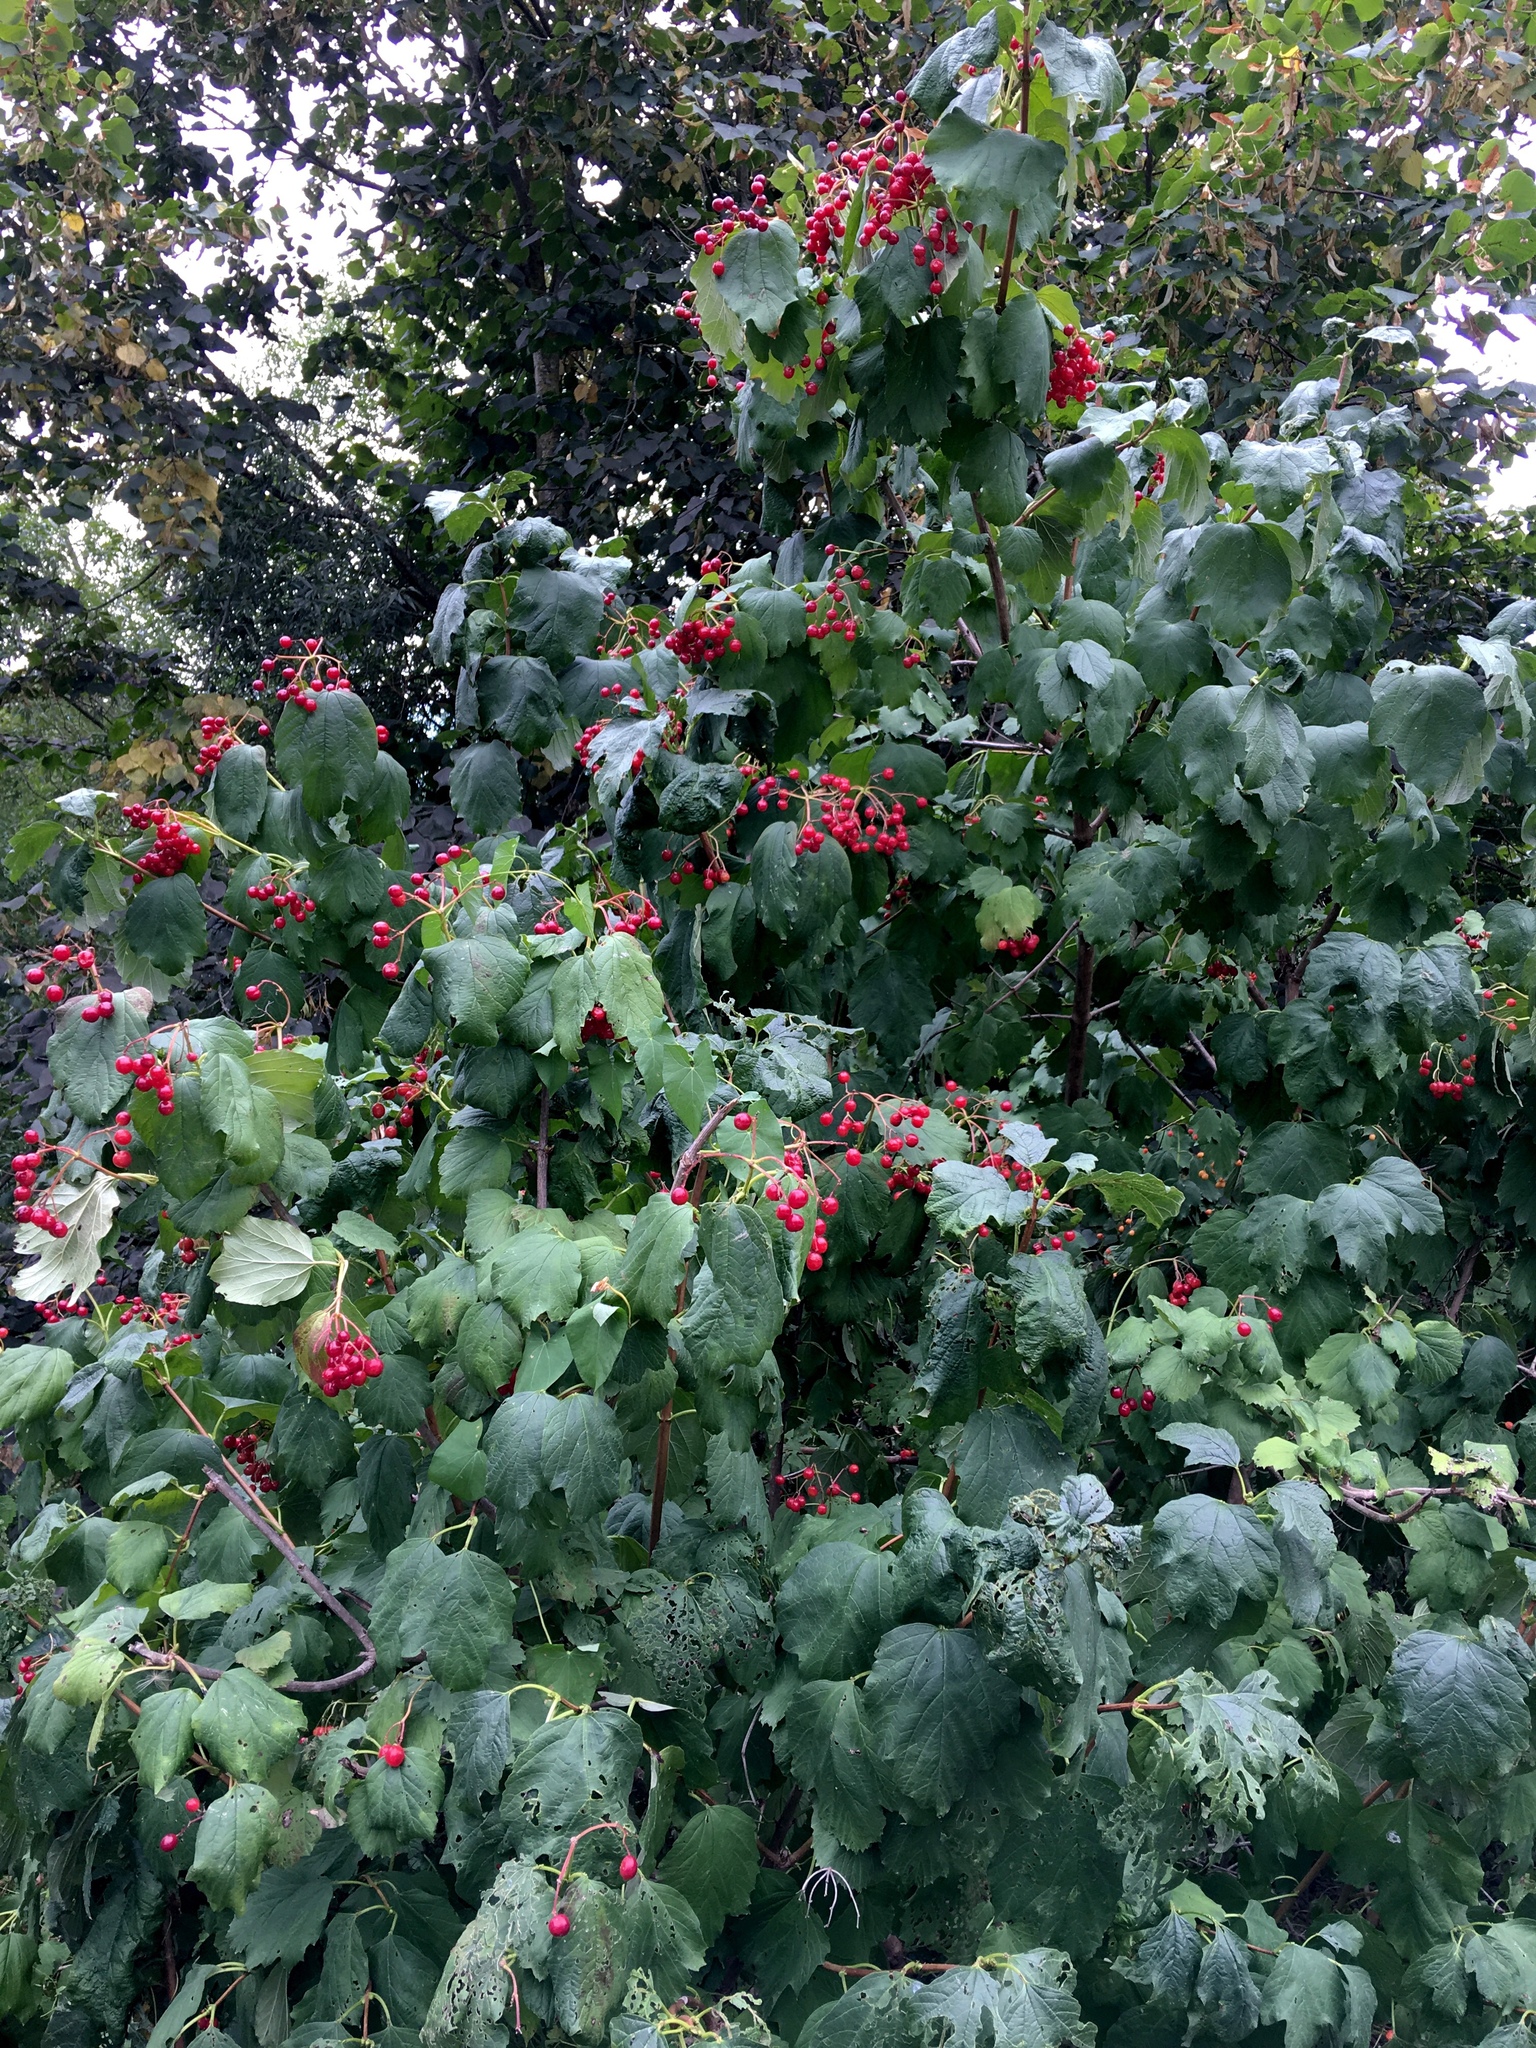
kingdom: Plantae
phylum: Tracheophyta
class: Magnoliopsida
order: Dipsacales
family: Viburnaceae
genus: Viburnum
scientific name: Viburnum opulus
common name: Guelder-rose
